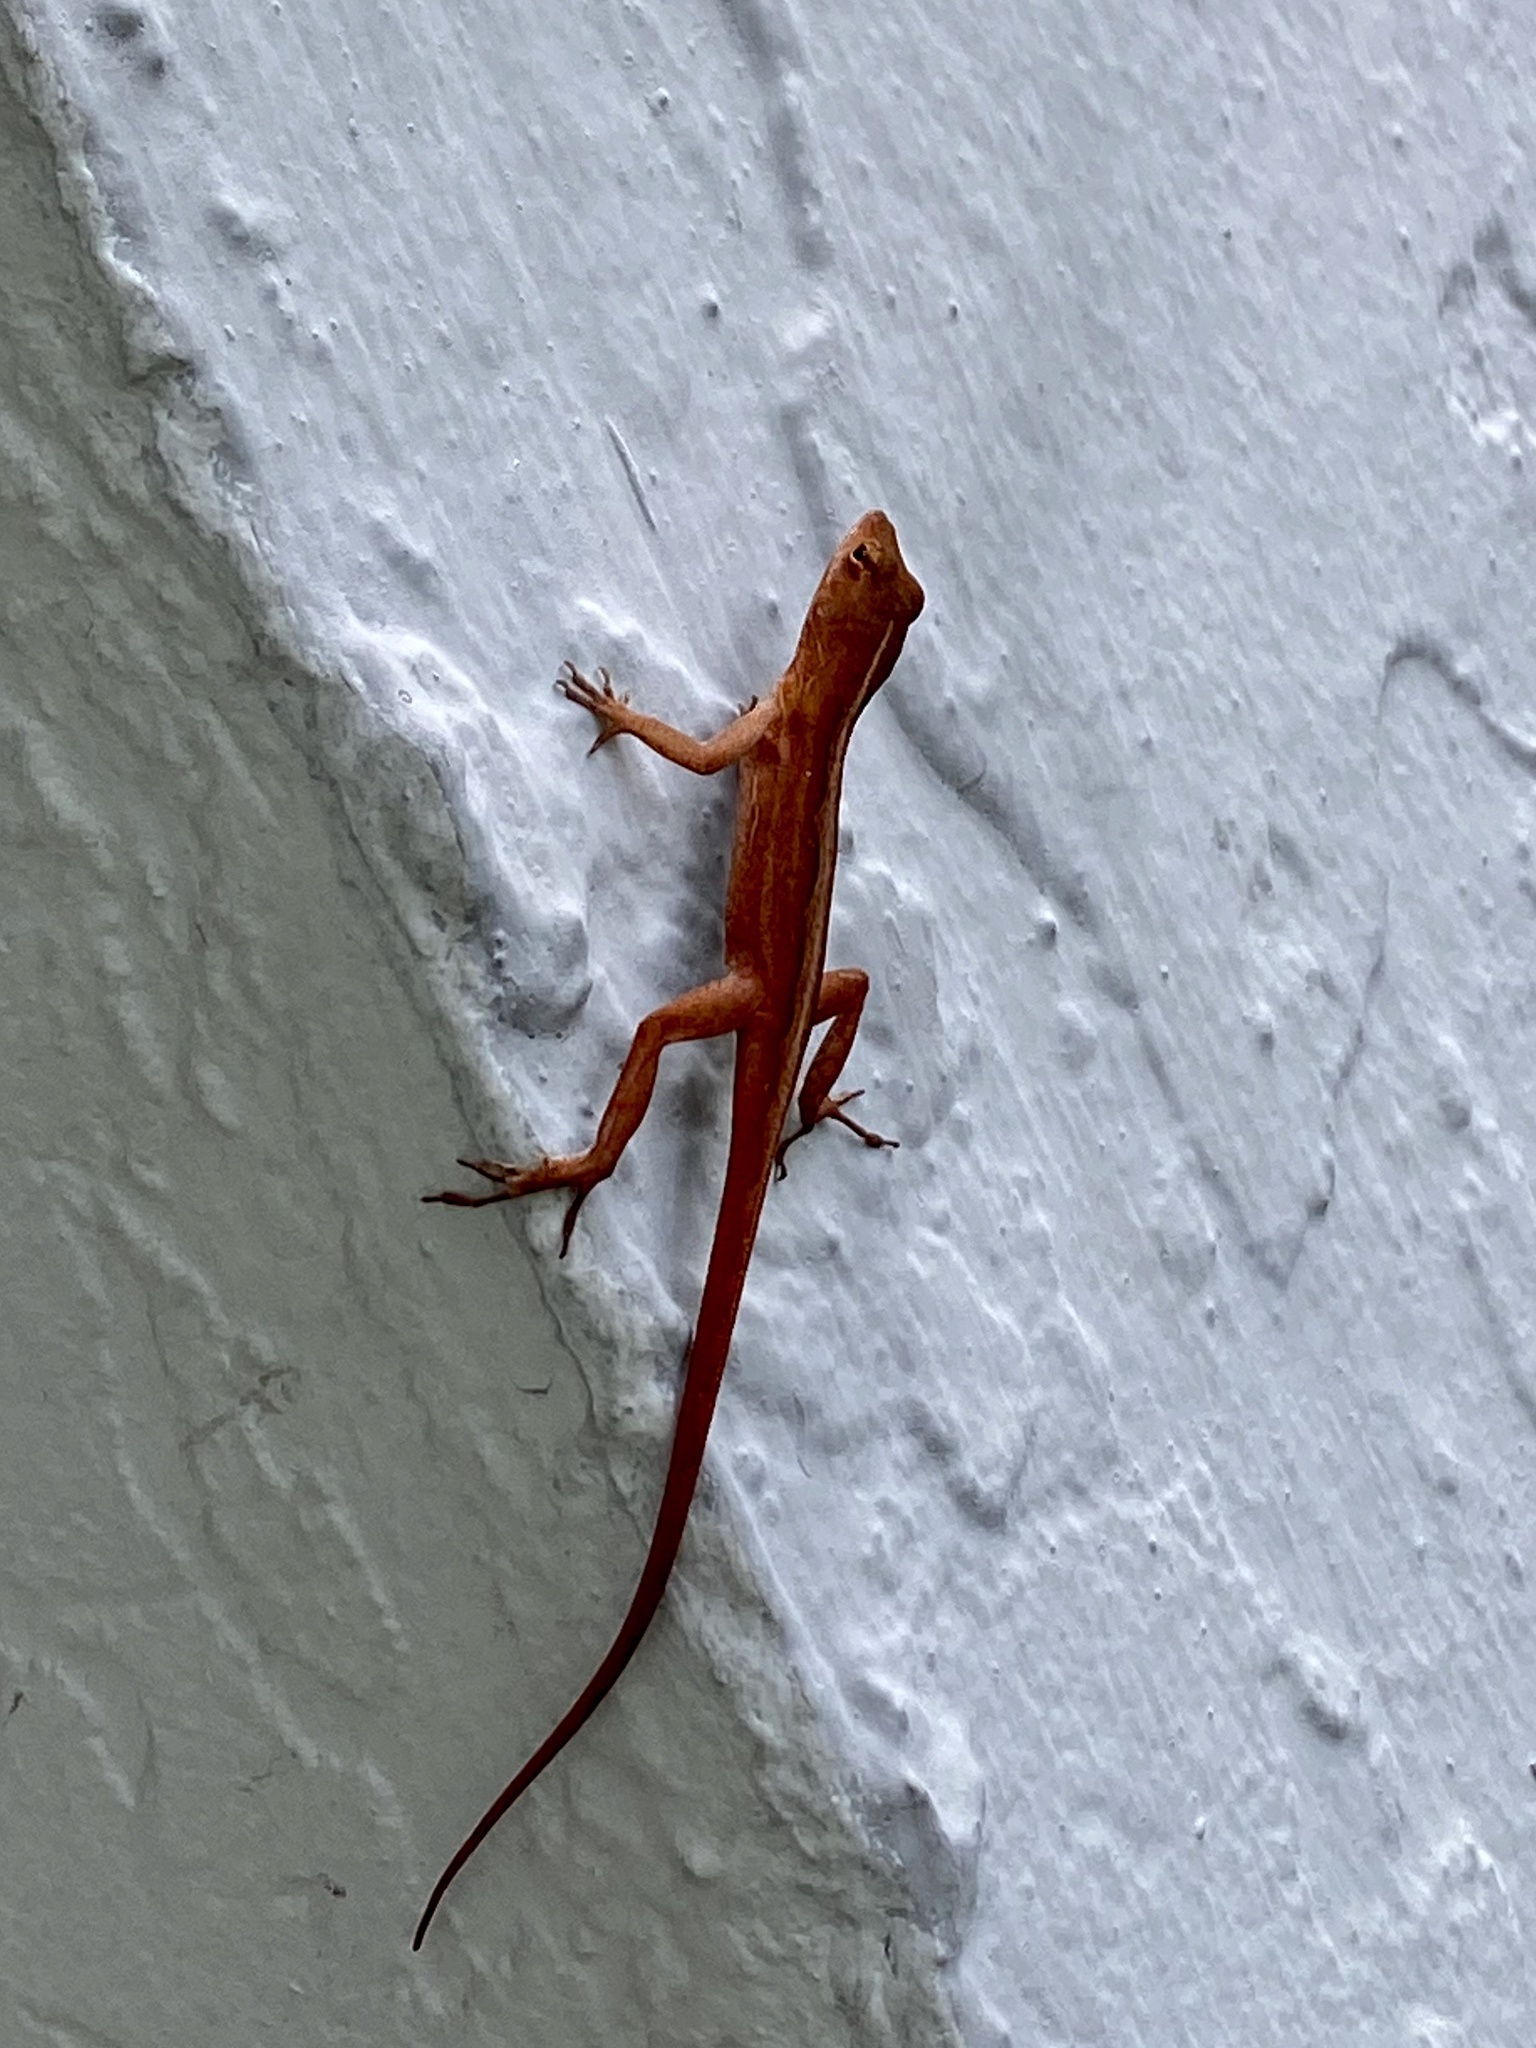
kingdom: Animalia
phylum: Chordata
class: Squamata
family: Dactyloidae
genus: Anolis
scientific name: Anolis sagrei
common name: Brown anole
